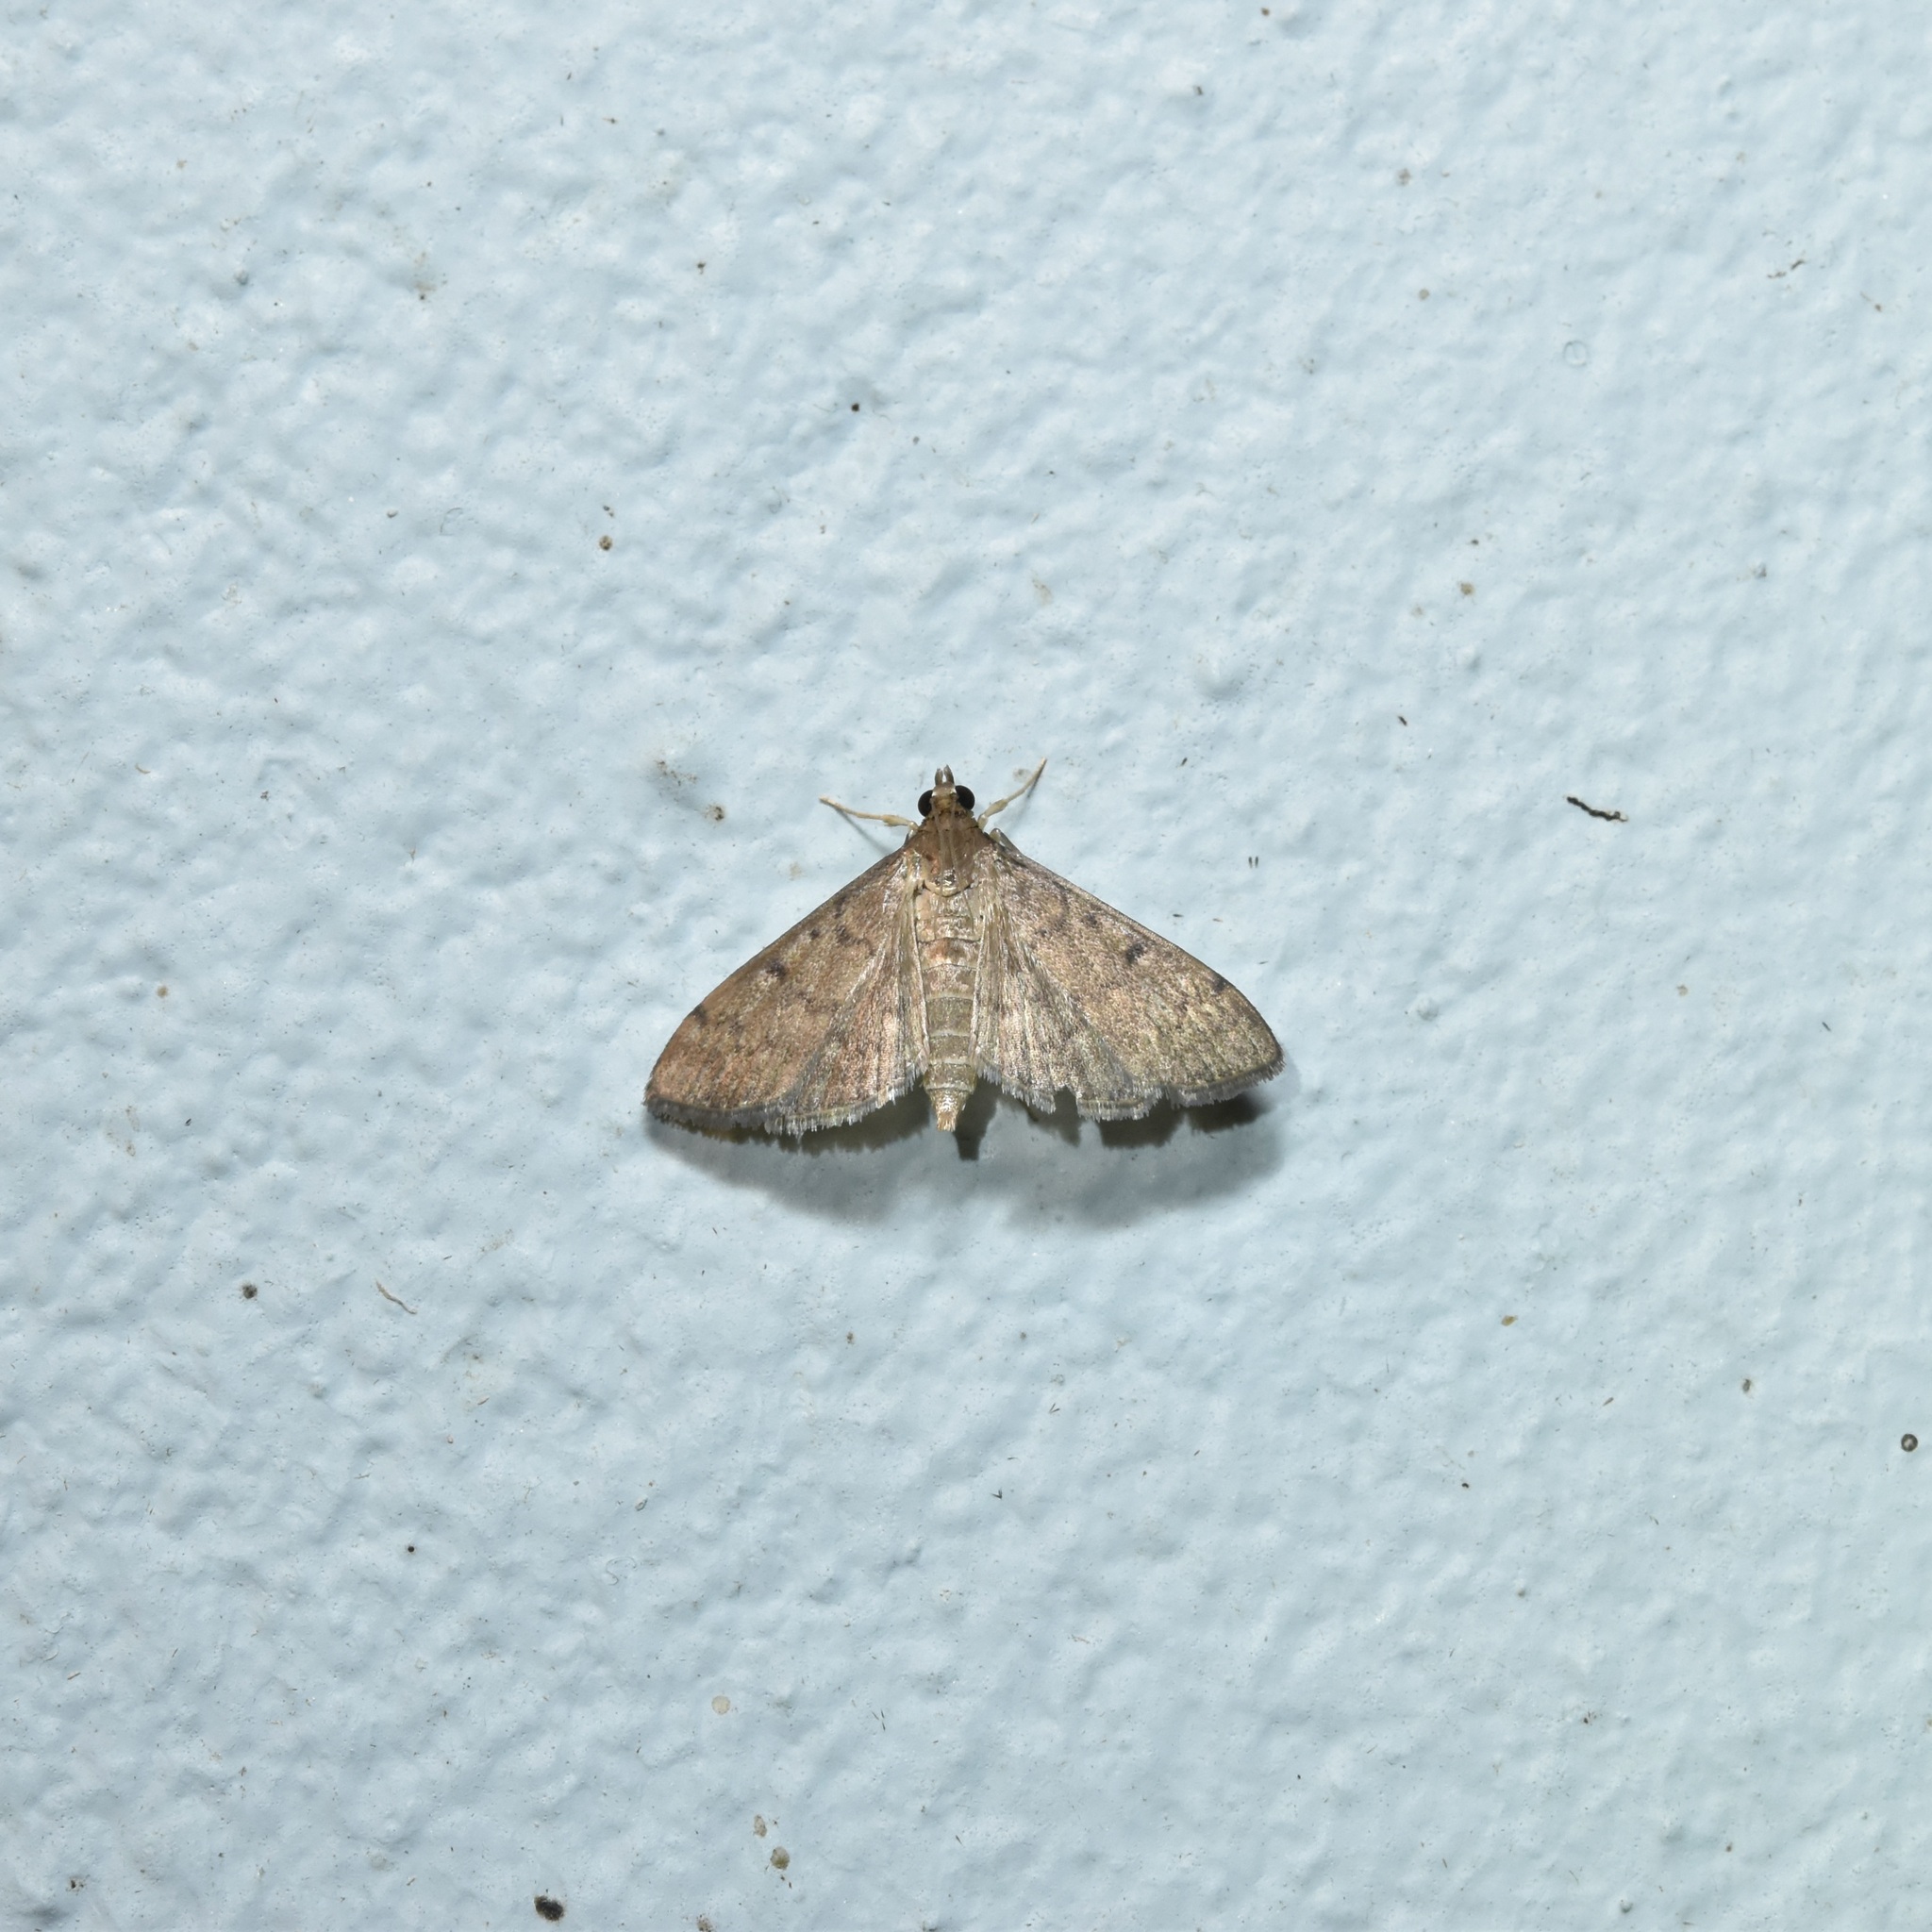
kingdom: Animalia
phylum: Arthropoda
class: Insecta
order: Lepidoptera
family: Crambidae
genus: Herpetogramma
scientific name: Herpetogramma phaeopteralis
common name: Dusky herpetogramma moth
